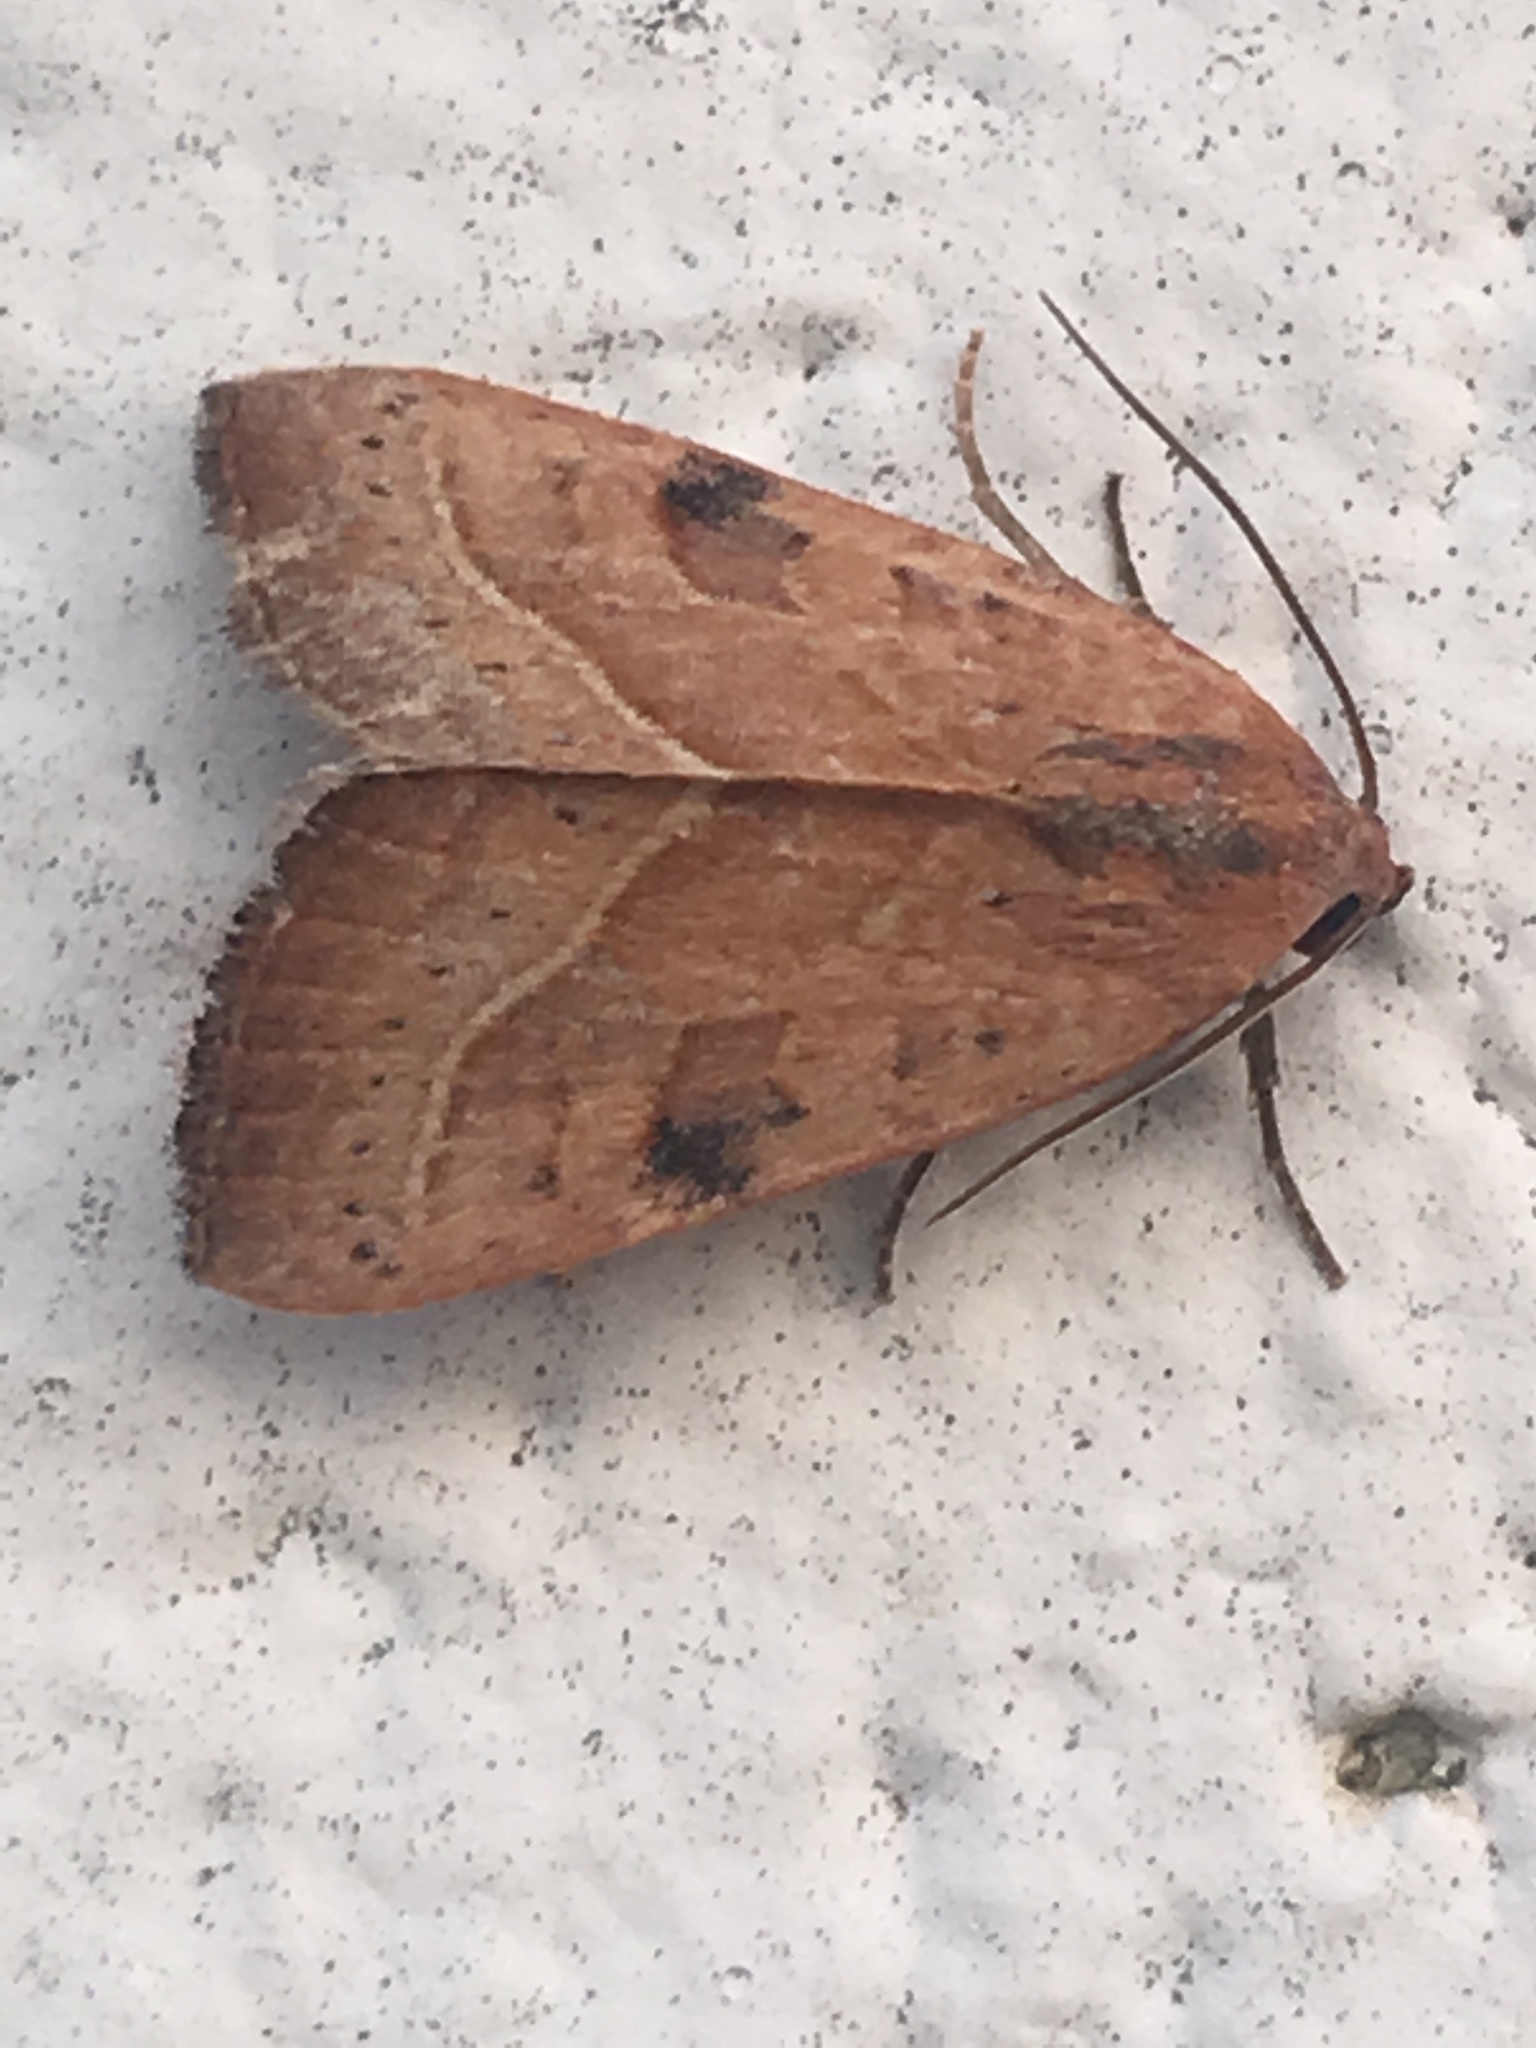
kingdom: Animalia
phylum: Arthropoda
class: Insecta
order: Lepidoptera
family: Noctuidae
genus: Galgula
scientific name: Galgula partita
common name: Wedgeling
